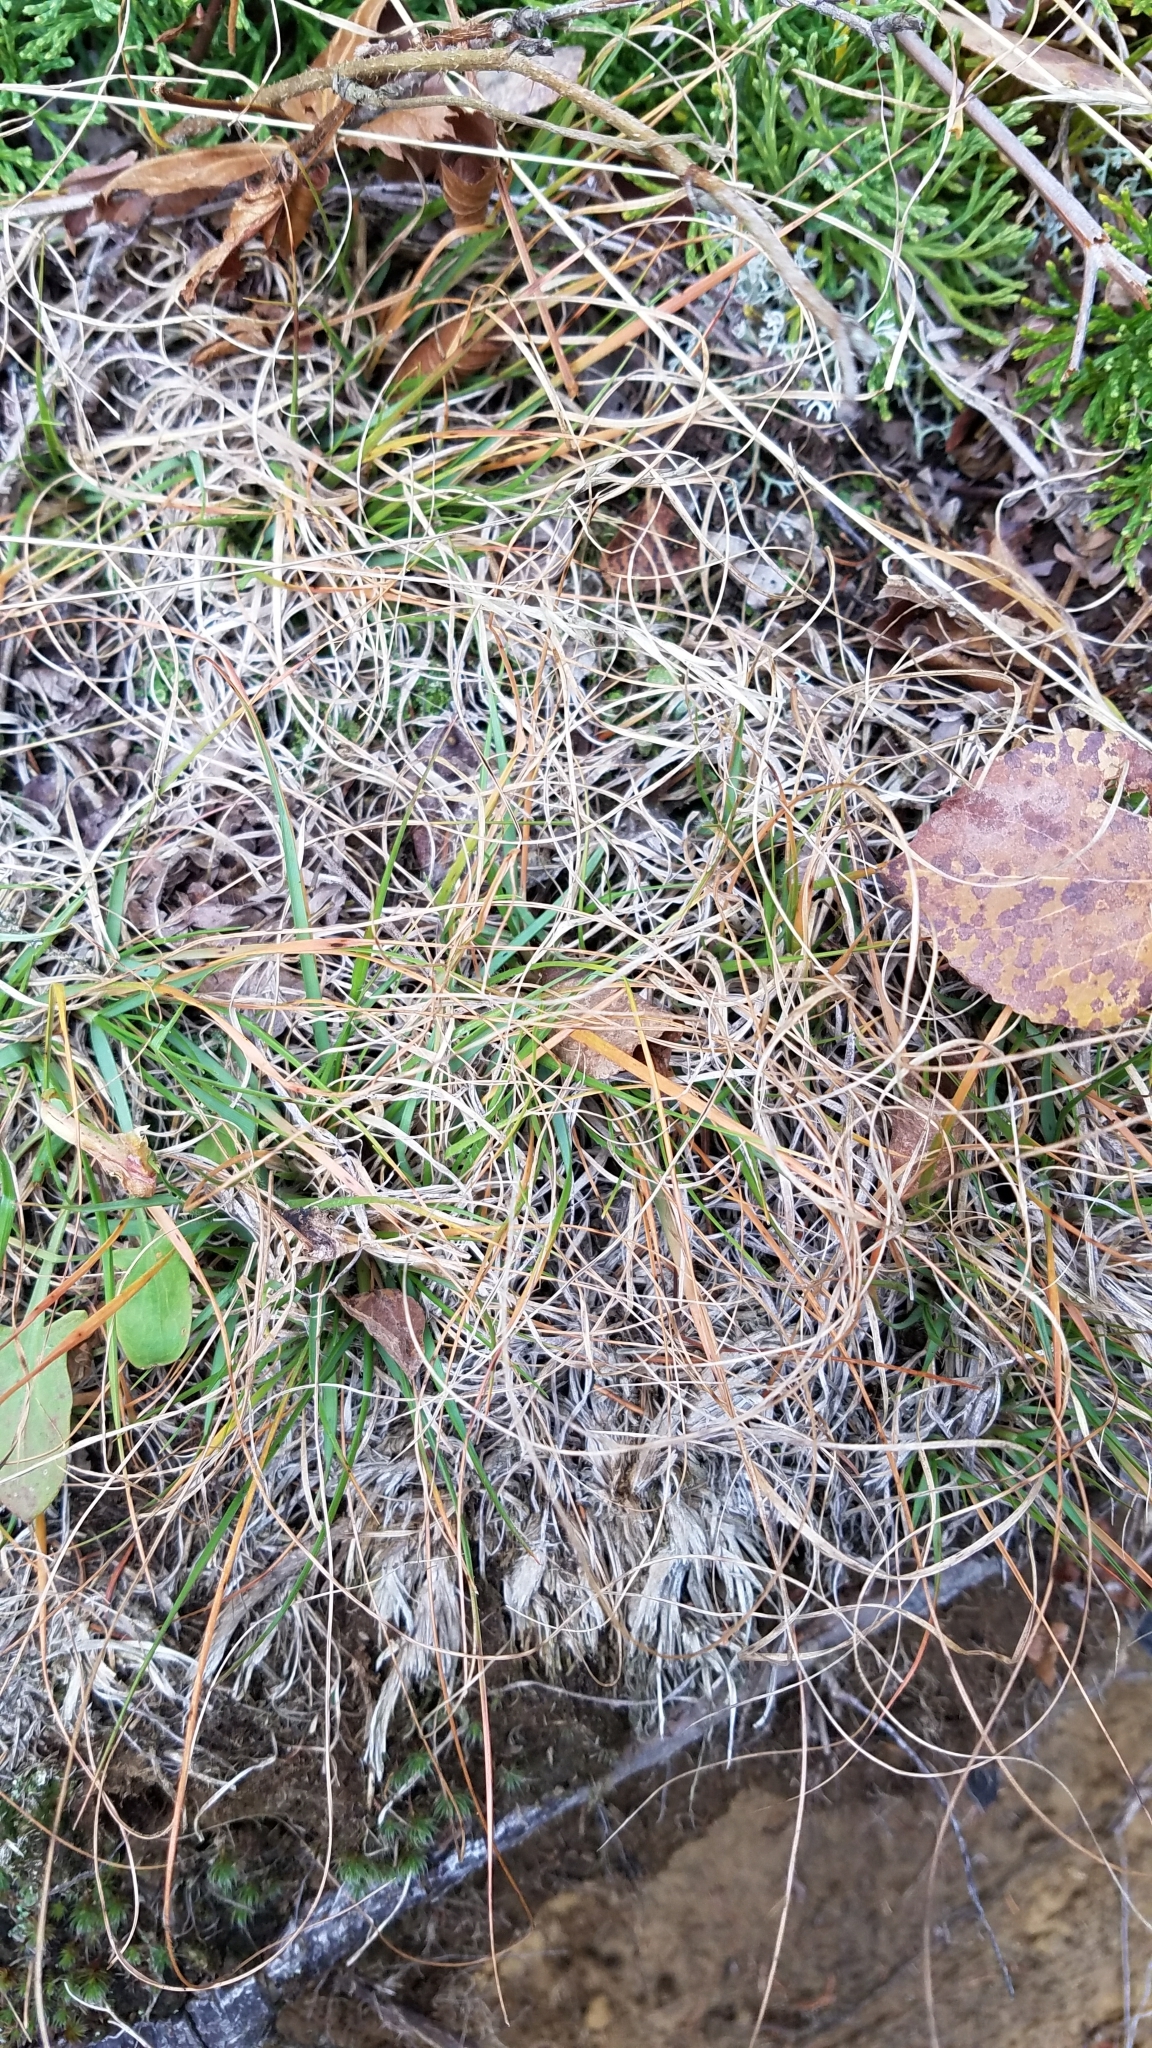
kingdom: Plantae
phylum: Tracheophyta
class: Liliopsida
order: Poales
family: Poaceae
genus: Danthonia
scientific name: Danthonia spicata
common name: Common wild oatgrass
